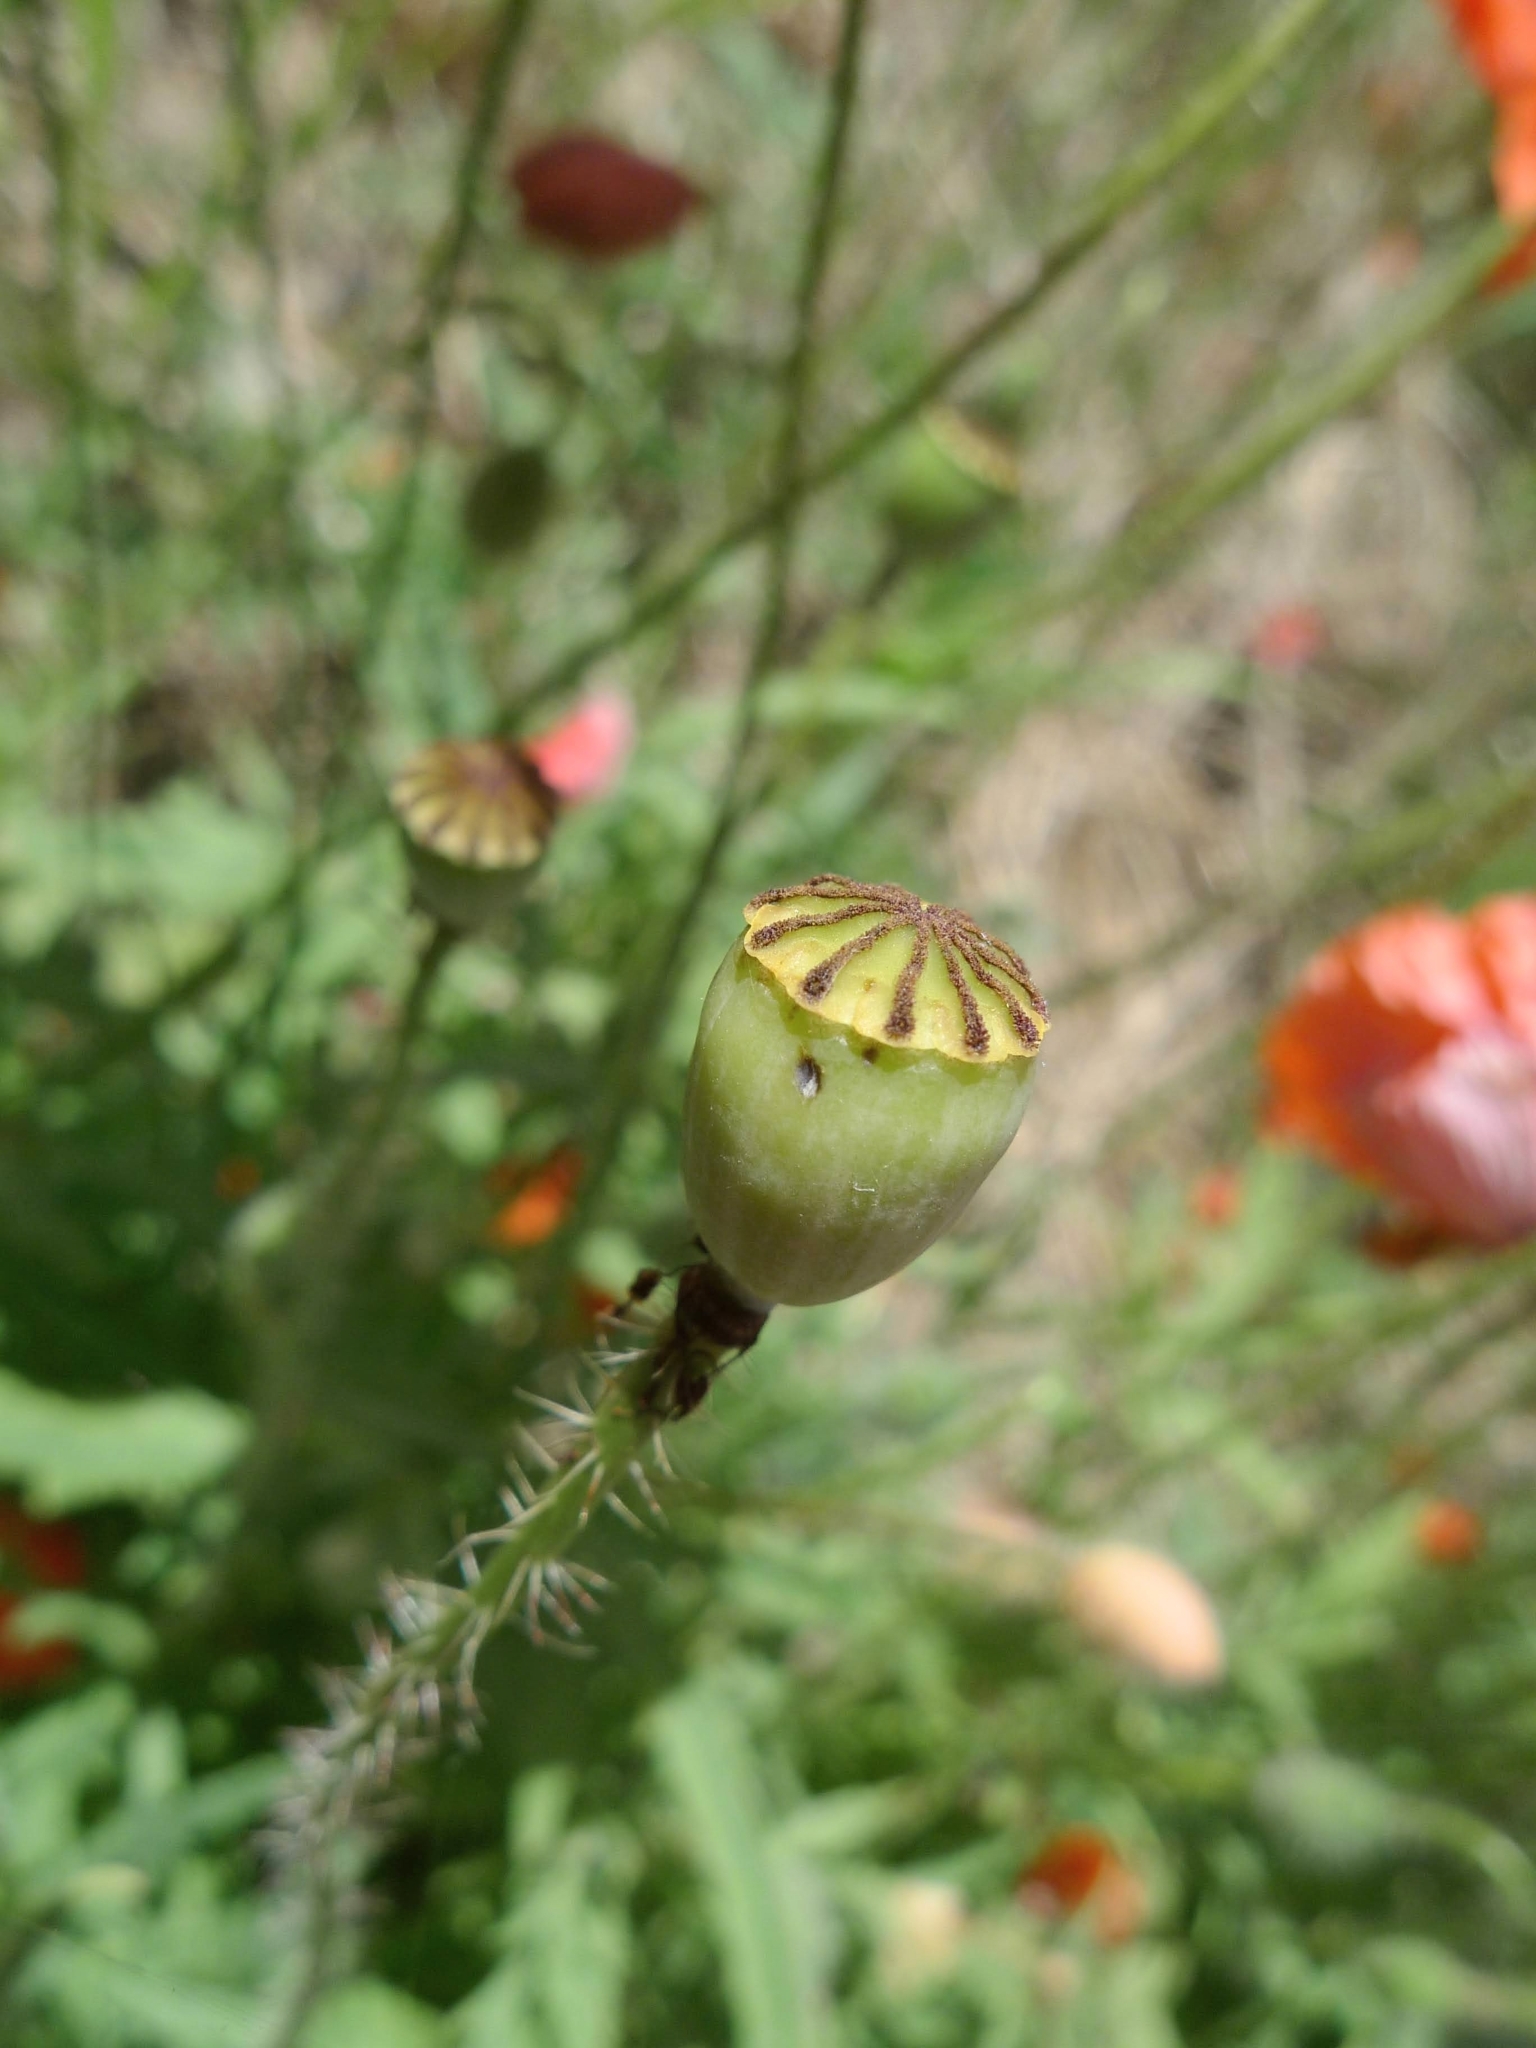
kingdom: Plantae
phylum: Tracheophyta
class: Magnoliopsida
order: Ranunculales
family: Papaveraceae
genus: Papaver
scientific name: Papaver rhoeas
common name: Corn poppy
